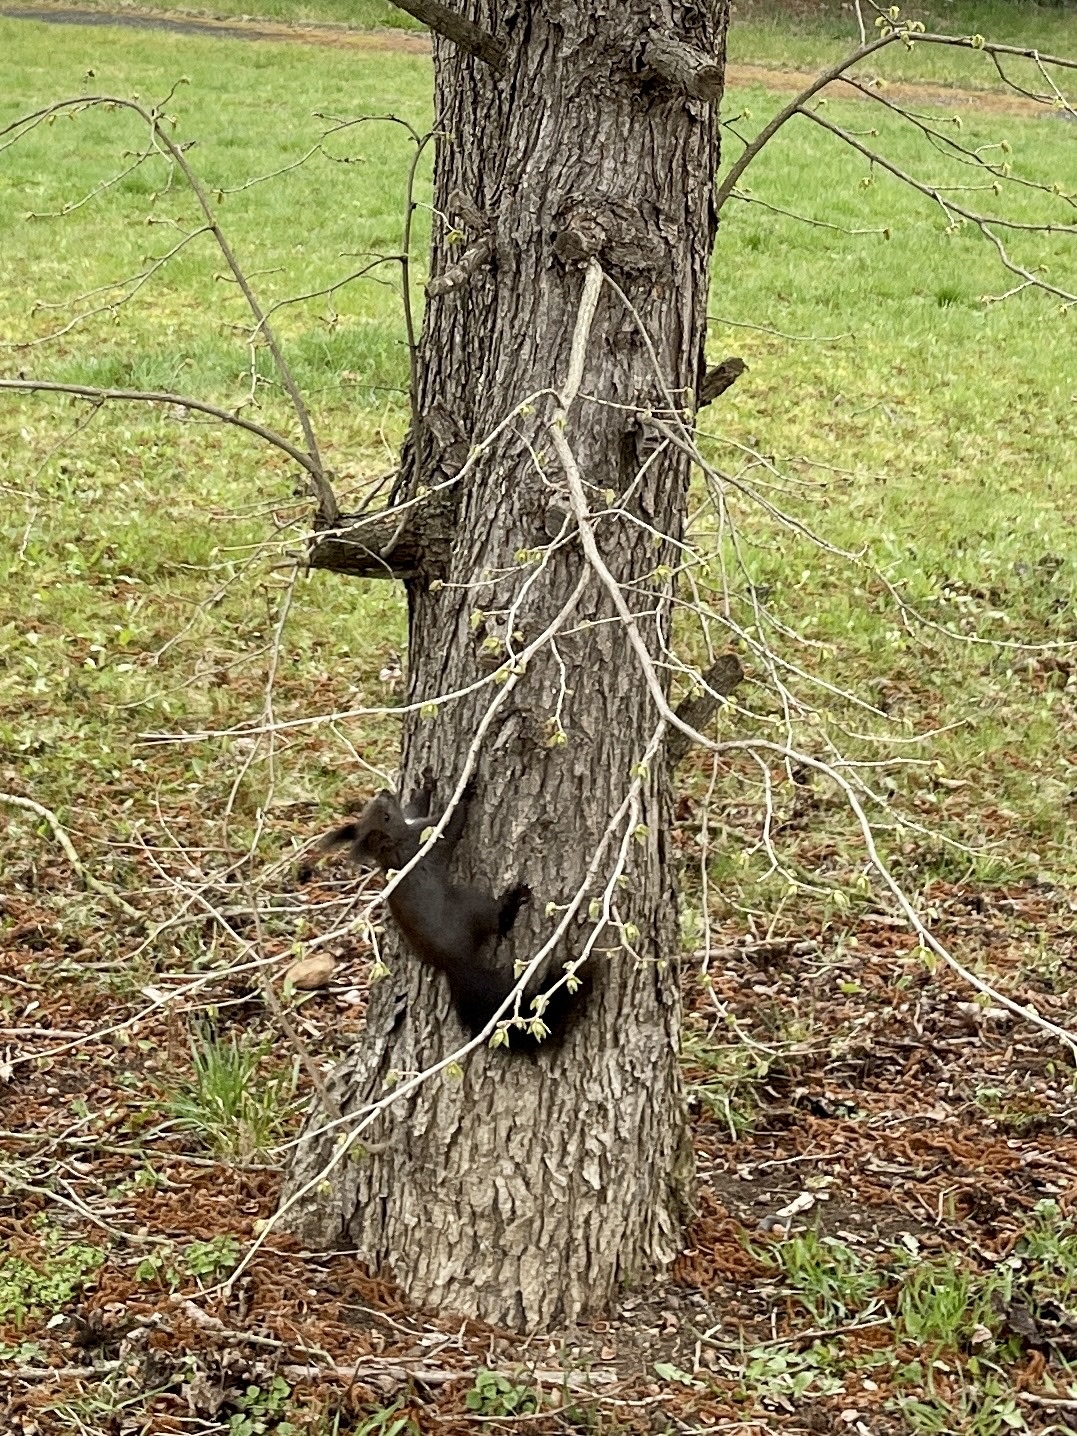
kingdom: Animalia
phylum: Chordata
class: Mammalia
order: Rodentia
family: Sciuridae
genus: Sciurus
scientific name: Sciurus vulgaris
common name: Eurasian red squirrel
